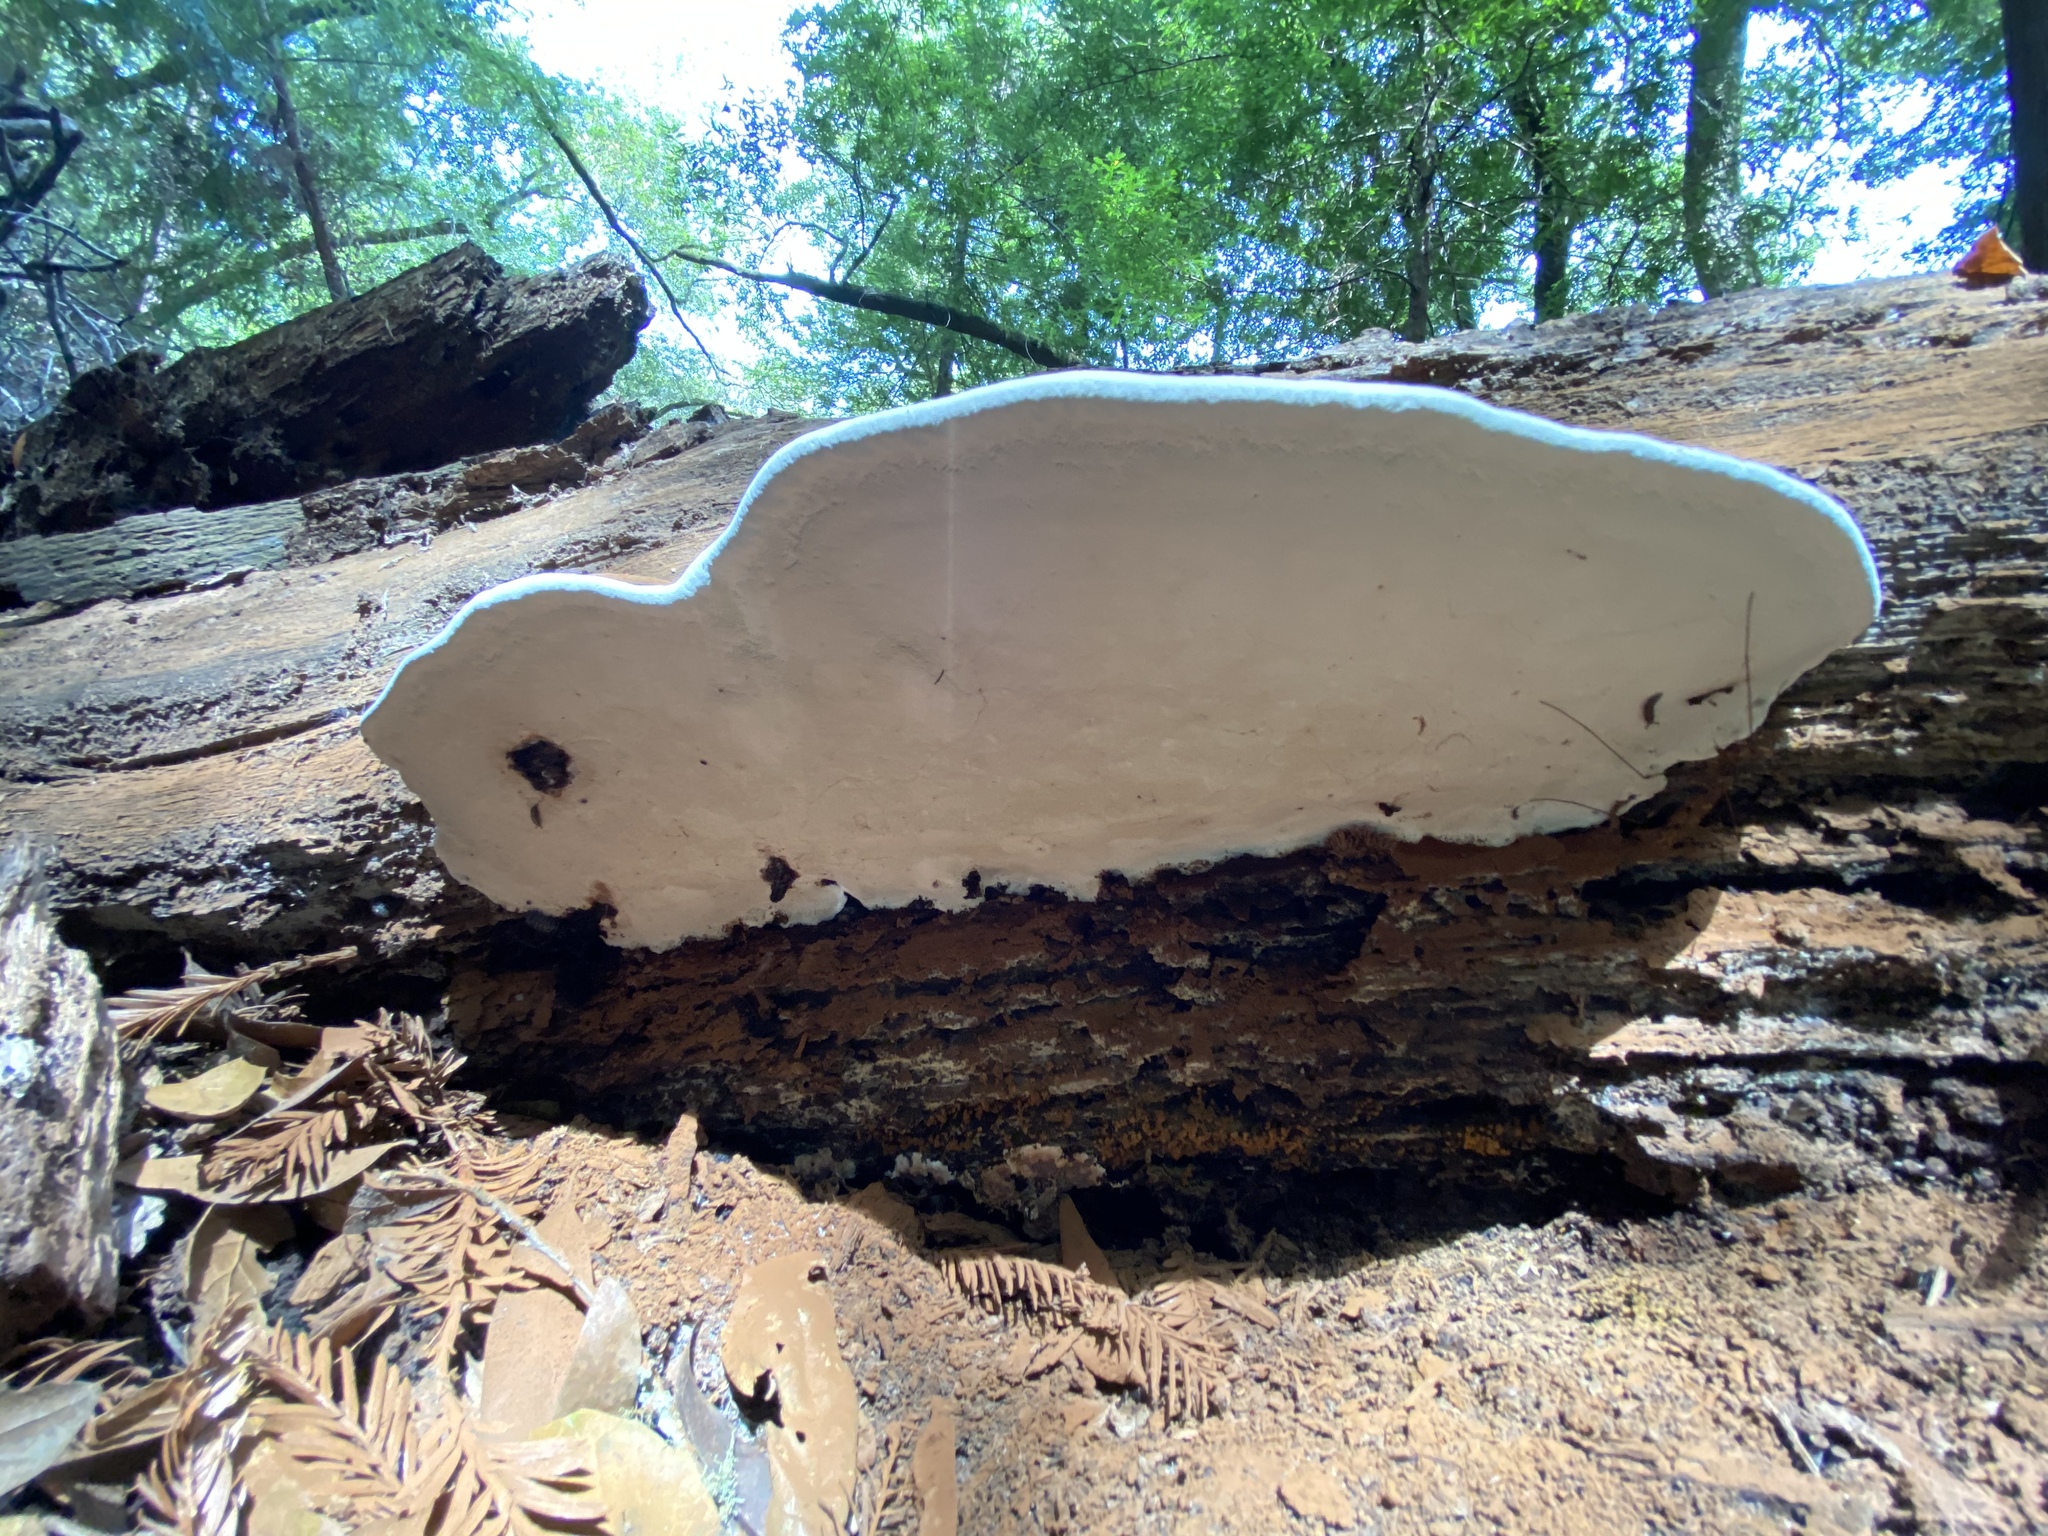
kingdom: Fungi
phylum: Basidiomycota
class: Agaricomycetes
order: Polyporales
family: Polyporaceae
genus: Ganoderma
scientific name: Ganoderma applanatum
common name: Artist's bracket
